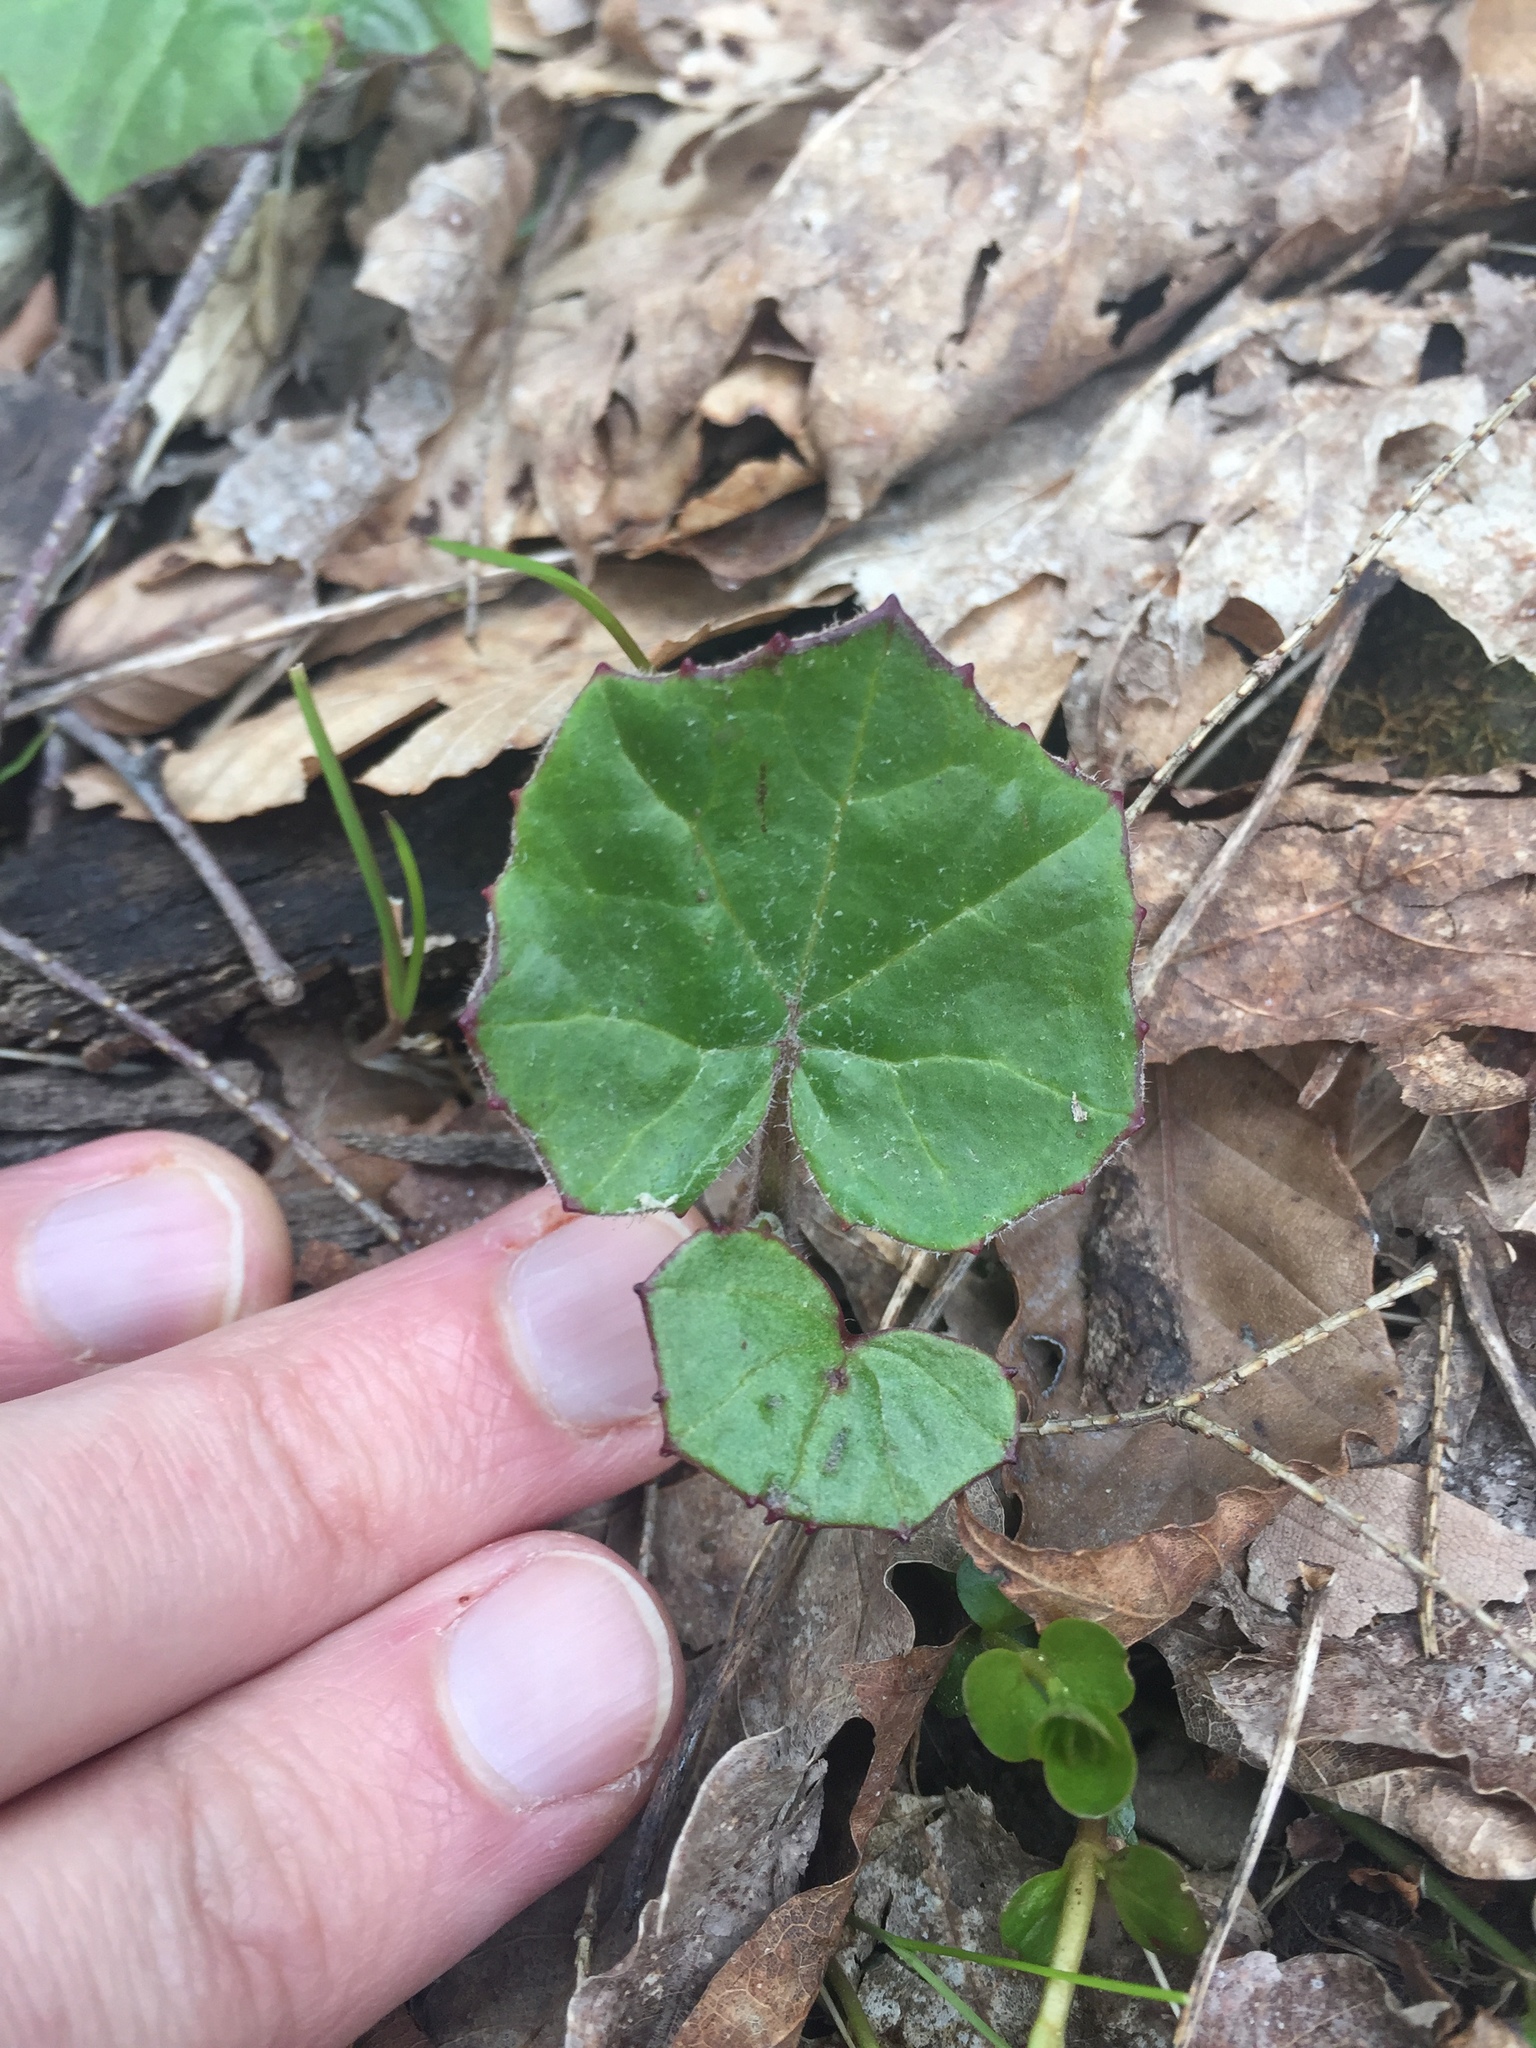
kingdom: Plantae
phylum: Tracheophyta
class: Magnoliopsida
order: Asterales
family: Asteraceae
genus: Tussilago
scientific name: Tussilago farfara
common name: Coltsfoot
